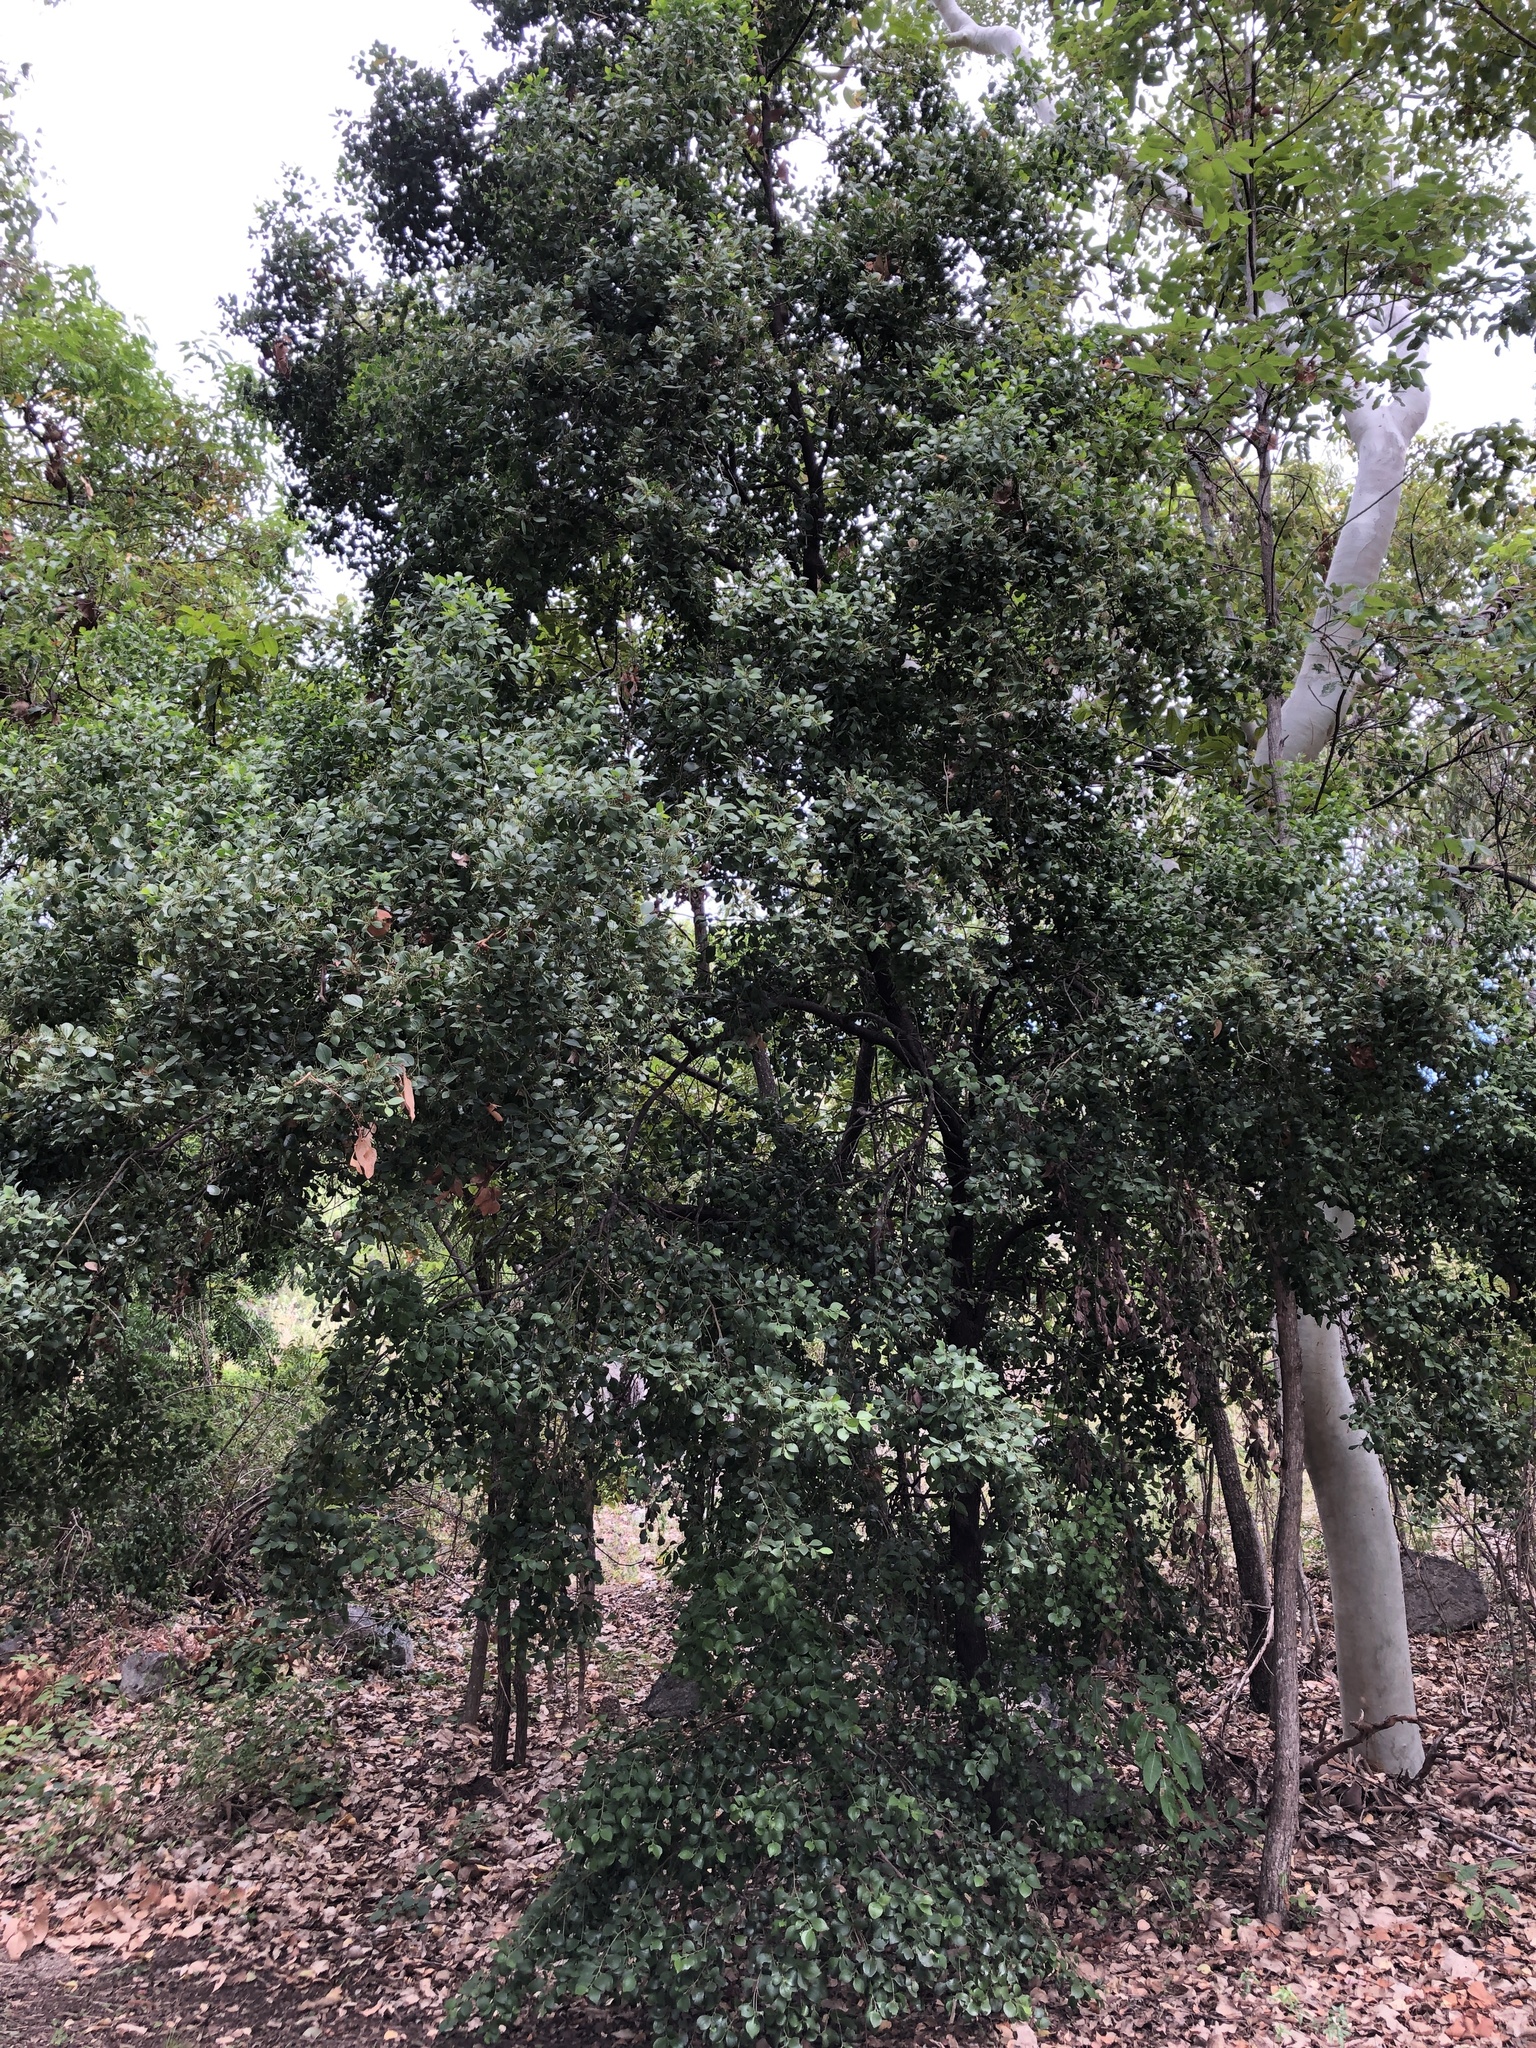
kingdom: Plantae
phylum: Tracheophyta
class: Magnoliopsida
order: Santalales
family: Santalaceae
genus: Exocarpos
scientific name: Exocarpos latifolius
